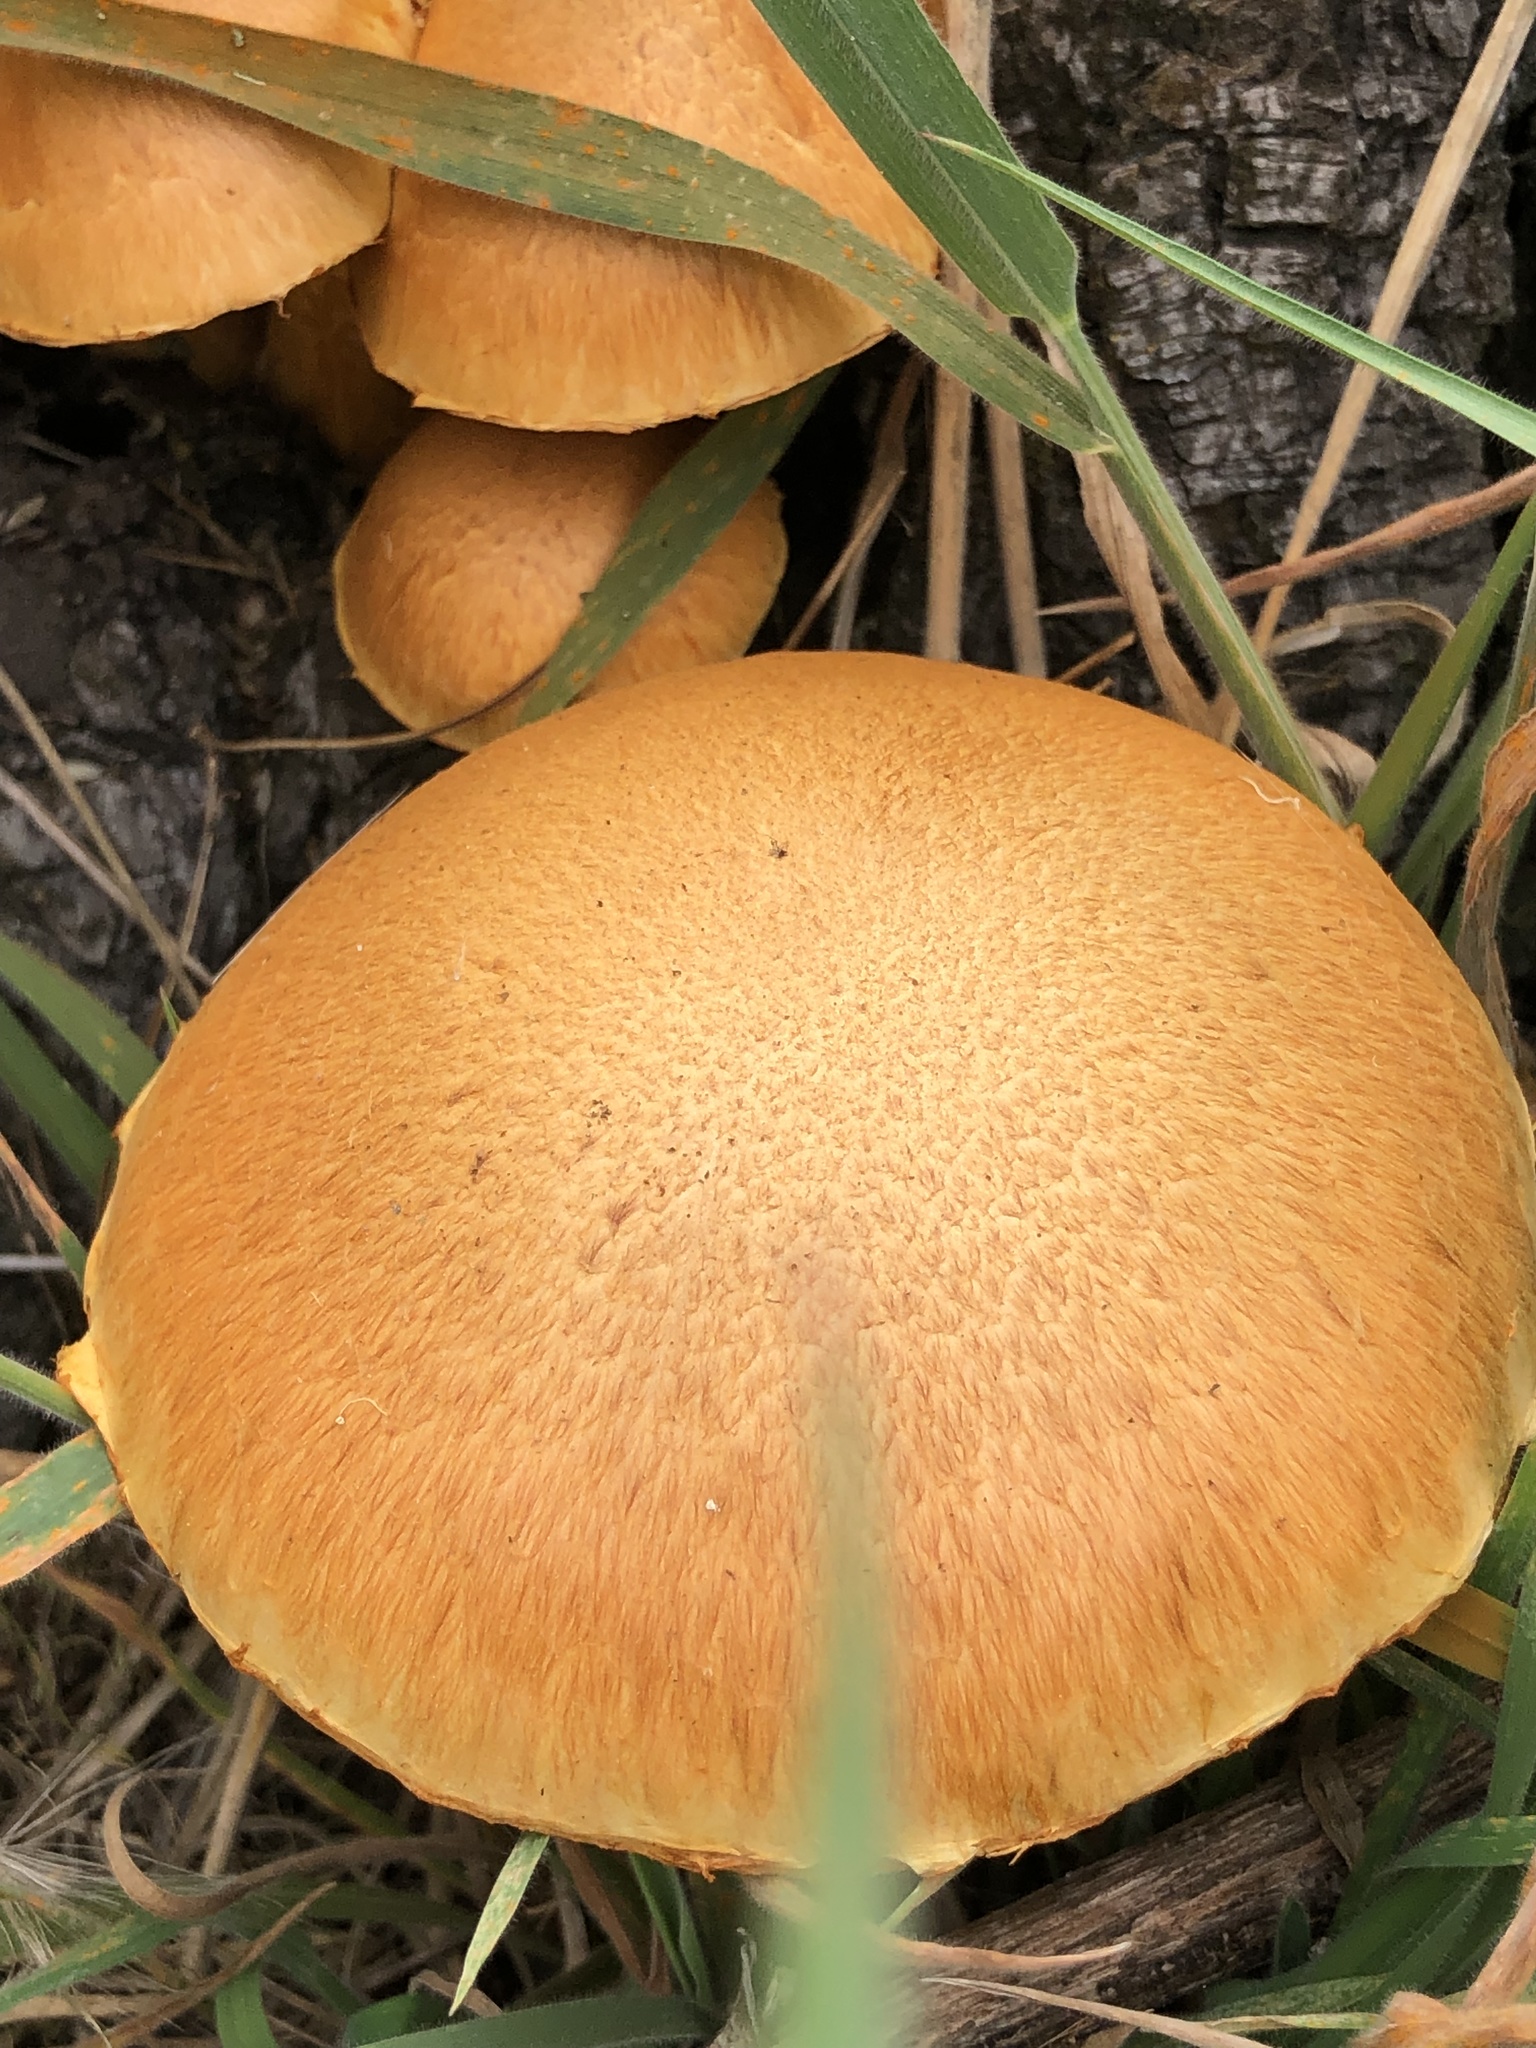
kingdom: Fungi
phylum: Basidiomycota
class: Agaricomycetes
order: Agaricales
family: Hymenogastraceae
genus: Gymnopilus
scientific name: Gymnopilus junonius
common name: Spectacular rustgill
